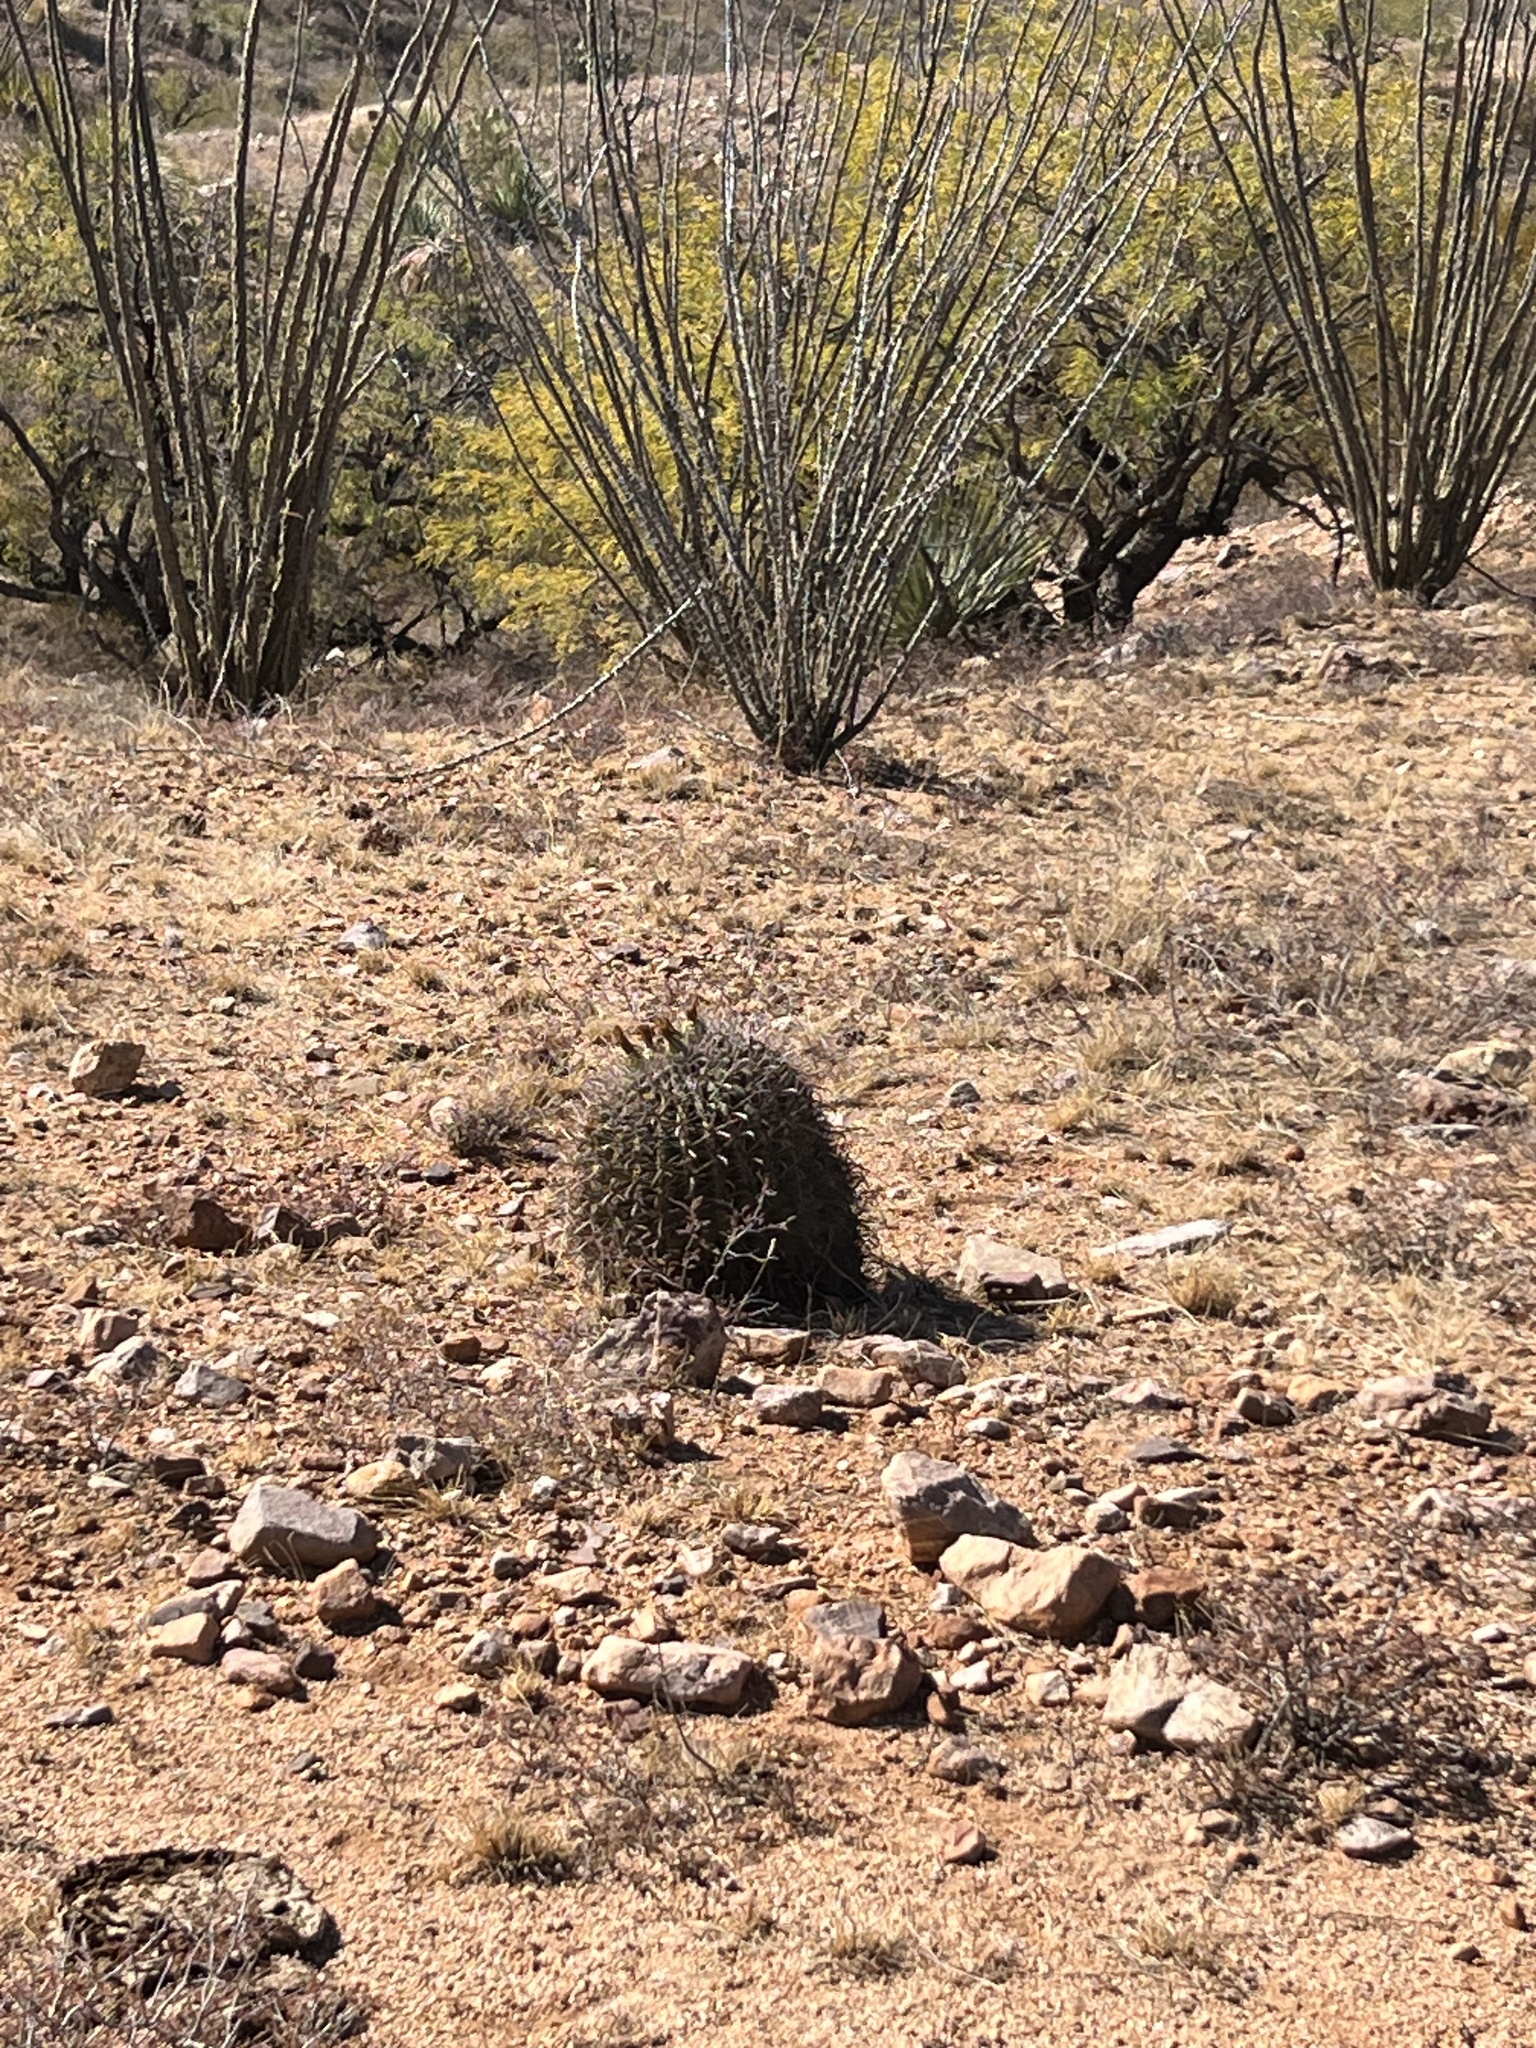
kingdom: Plantae
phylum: Tracheophyta
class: Magnoliopsida
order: Caryophyllales
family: Cactaceae
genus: Ferocactus
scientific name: Ferocactus wislizeni
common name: Candy barrel cactus
